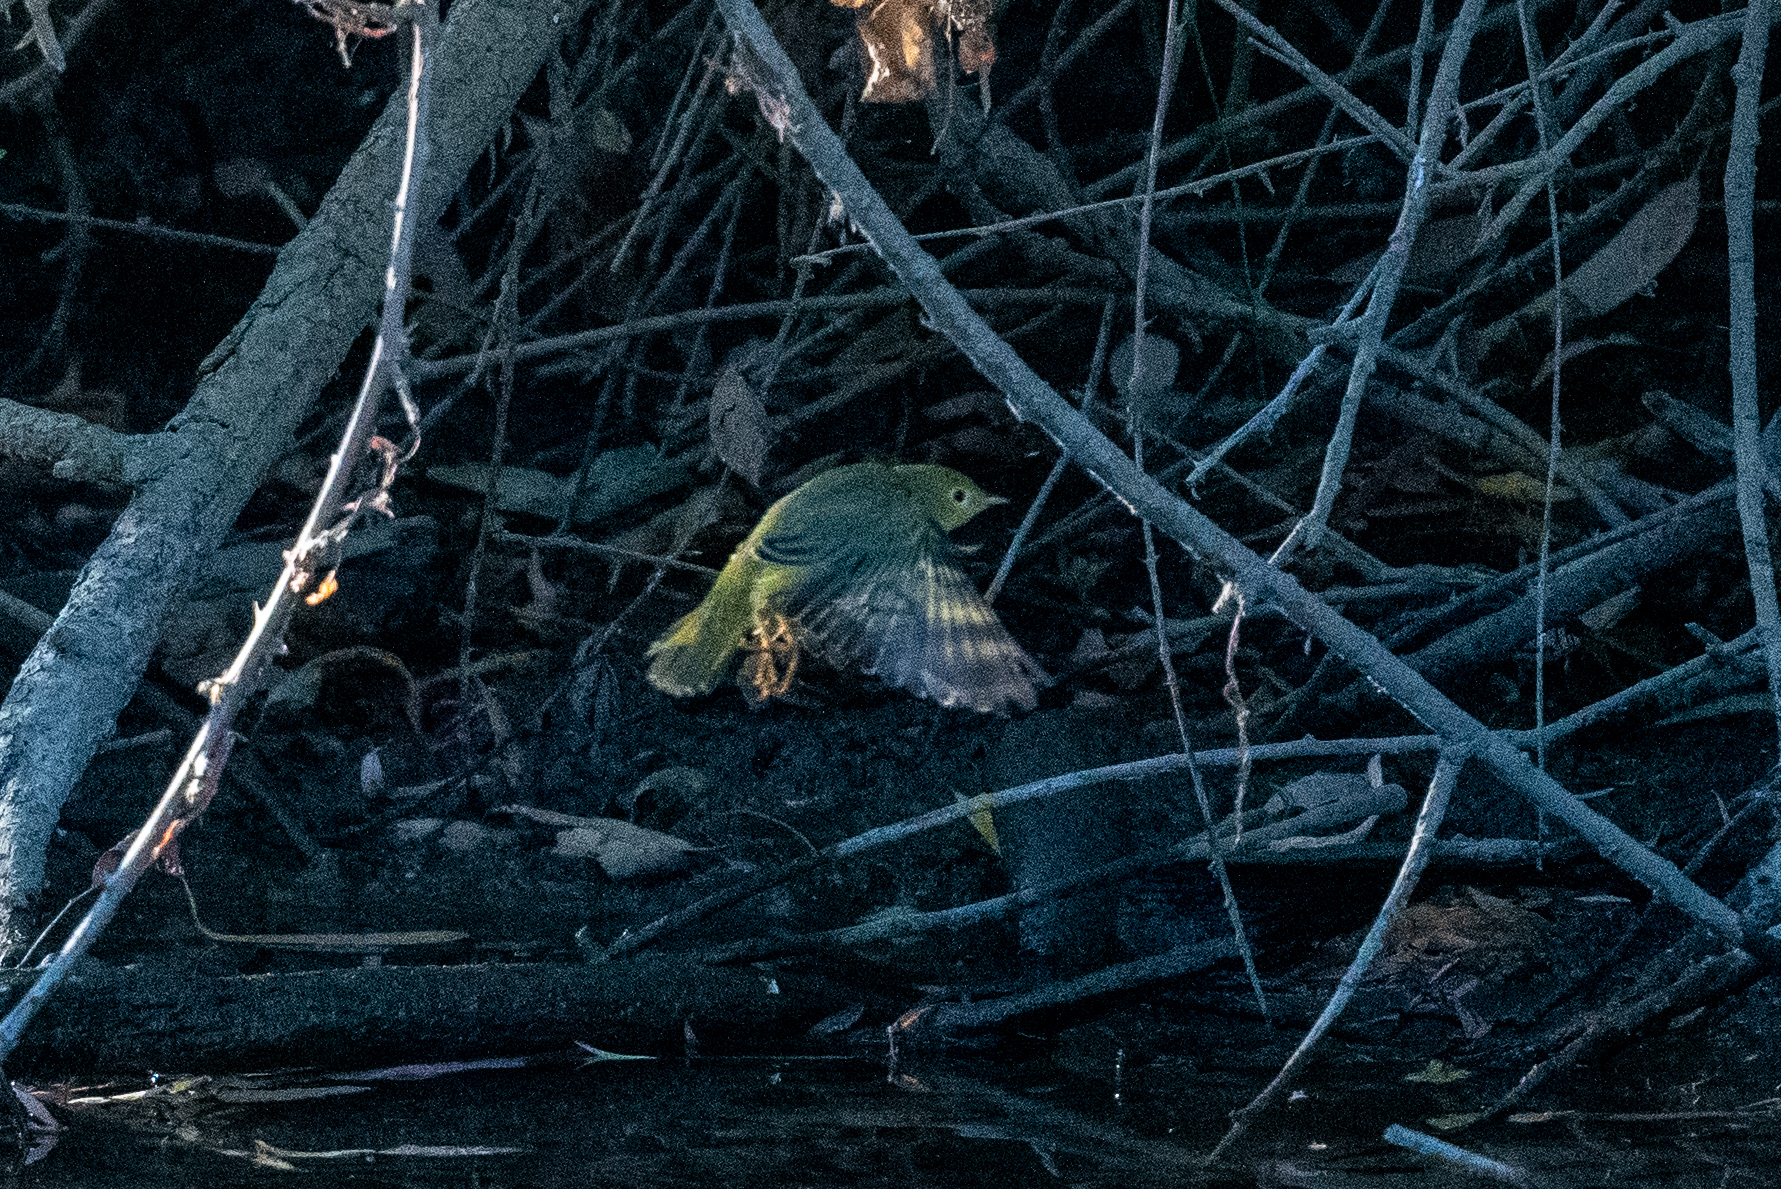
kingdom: Animalia
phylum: Chordata
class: Aves
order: Passeriformes
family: Parulidae
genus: Setophaga
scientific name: Setophaga petechia
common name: Yellow warbler
